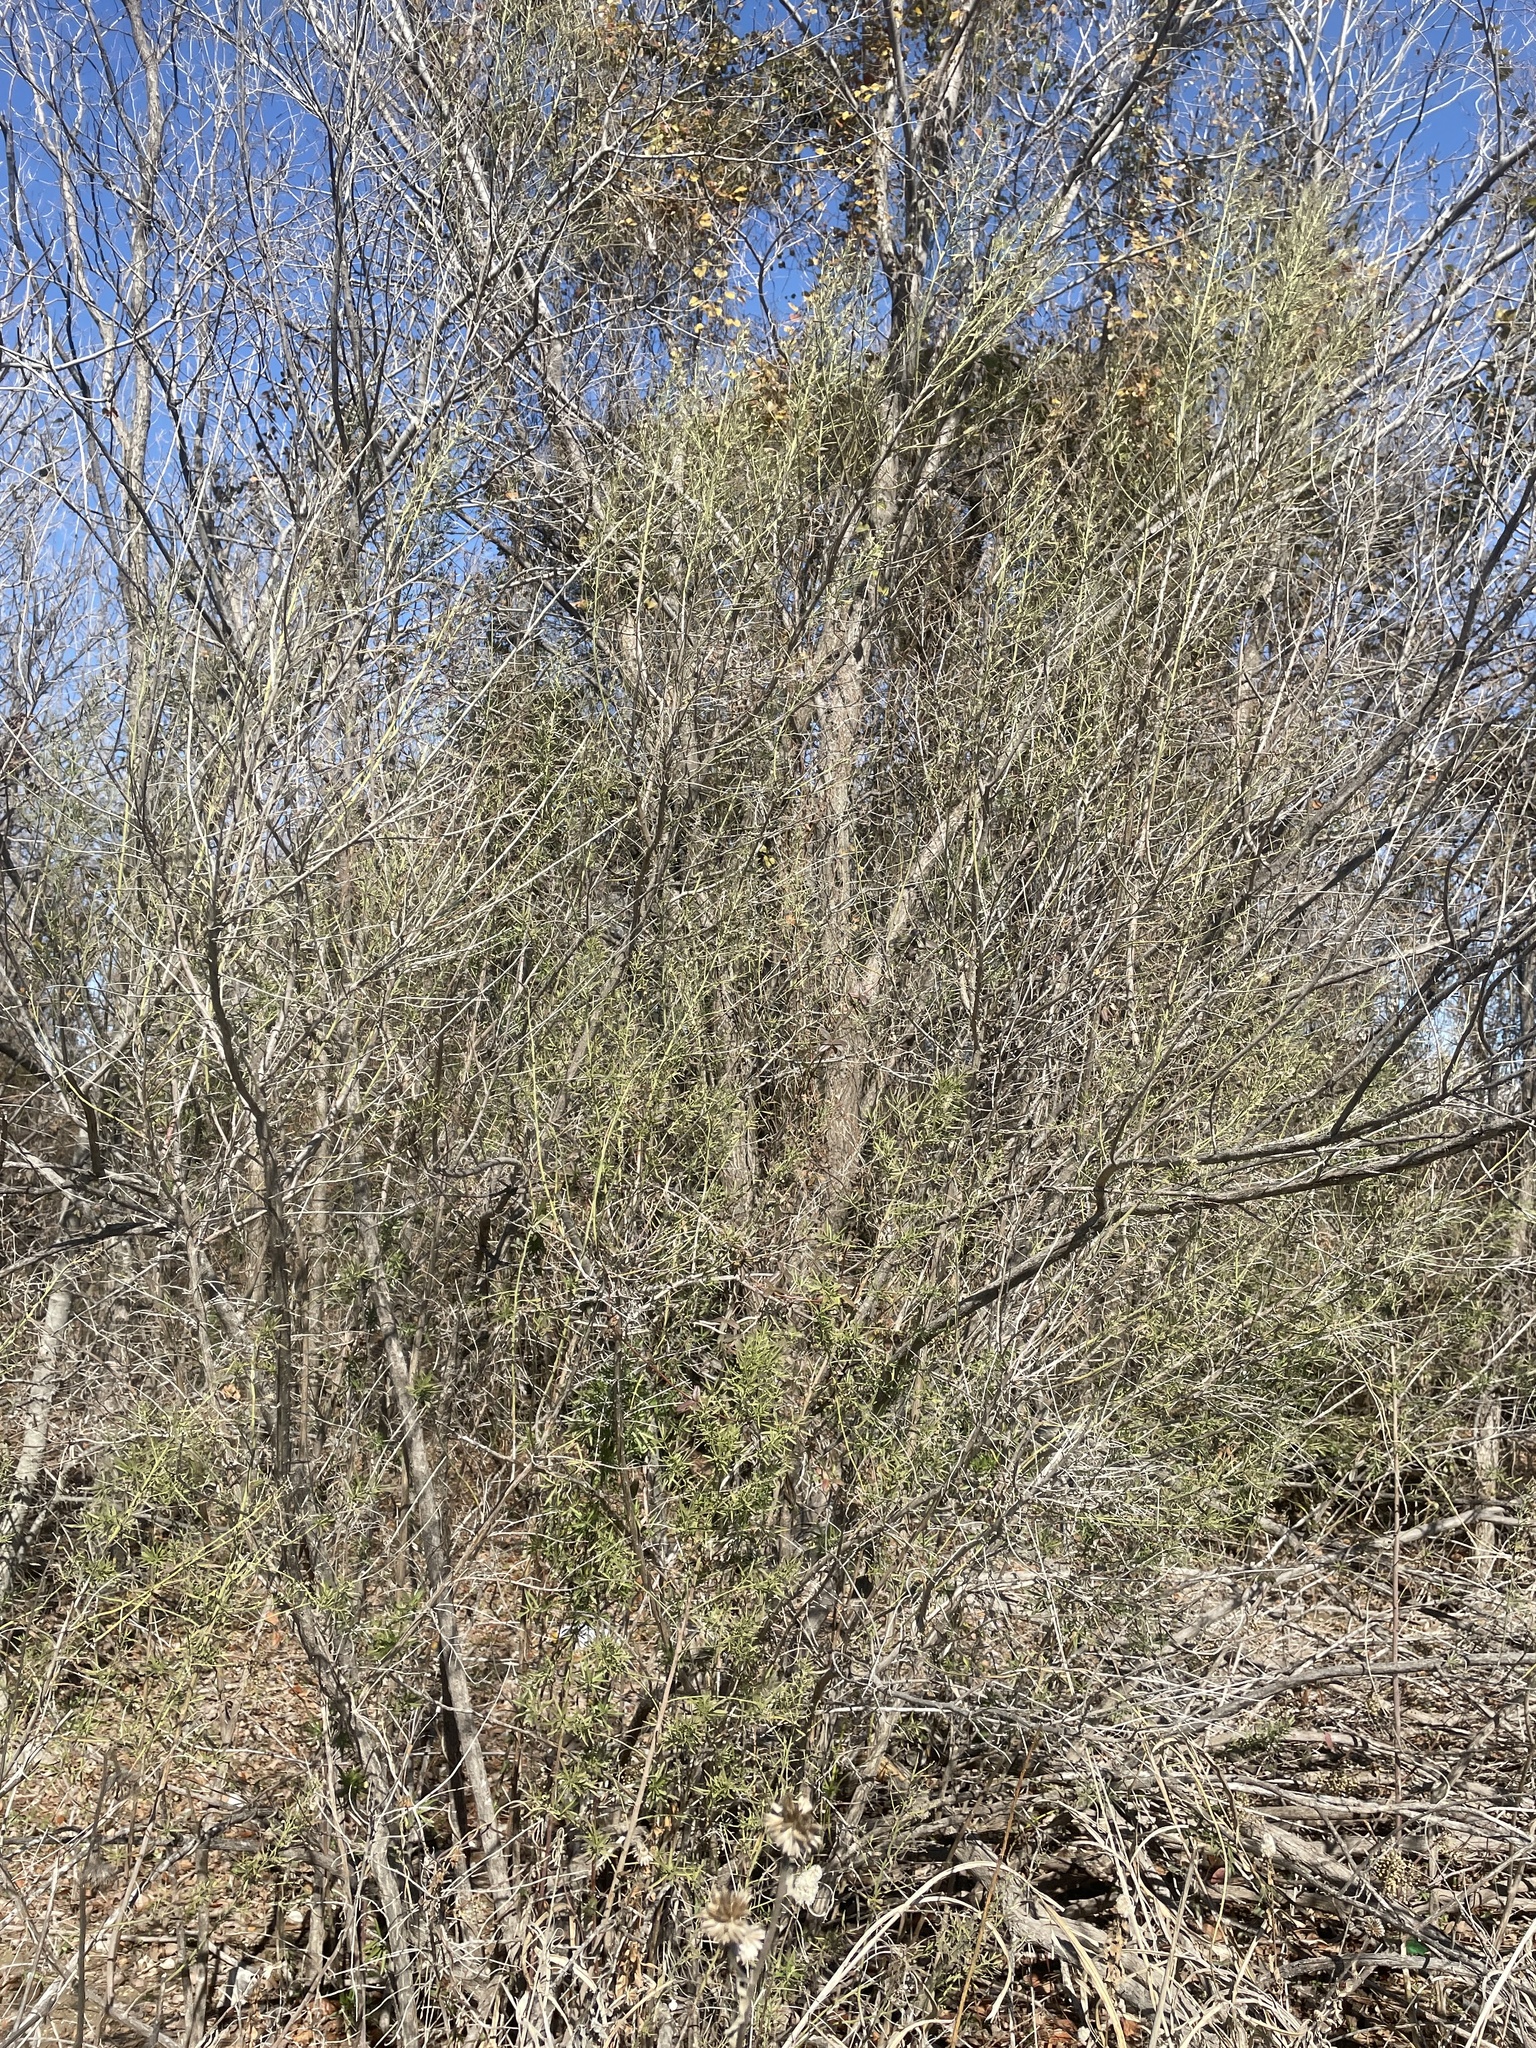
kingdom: Plantae
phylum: Tracheophyta
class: Magnoliopsida
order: Asterales
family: Asteraceae
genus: Baccharis
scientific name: Baccharis neglecta
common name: Roosevelt-weed
